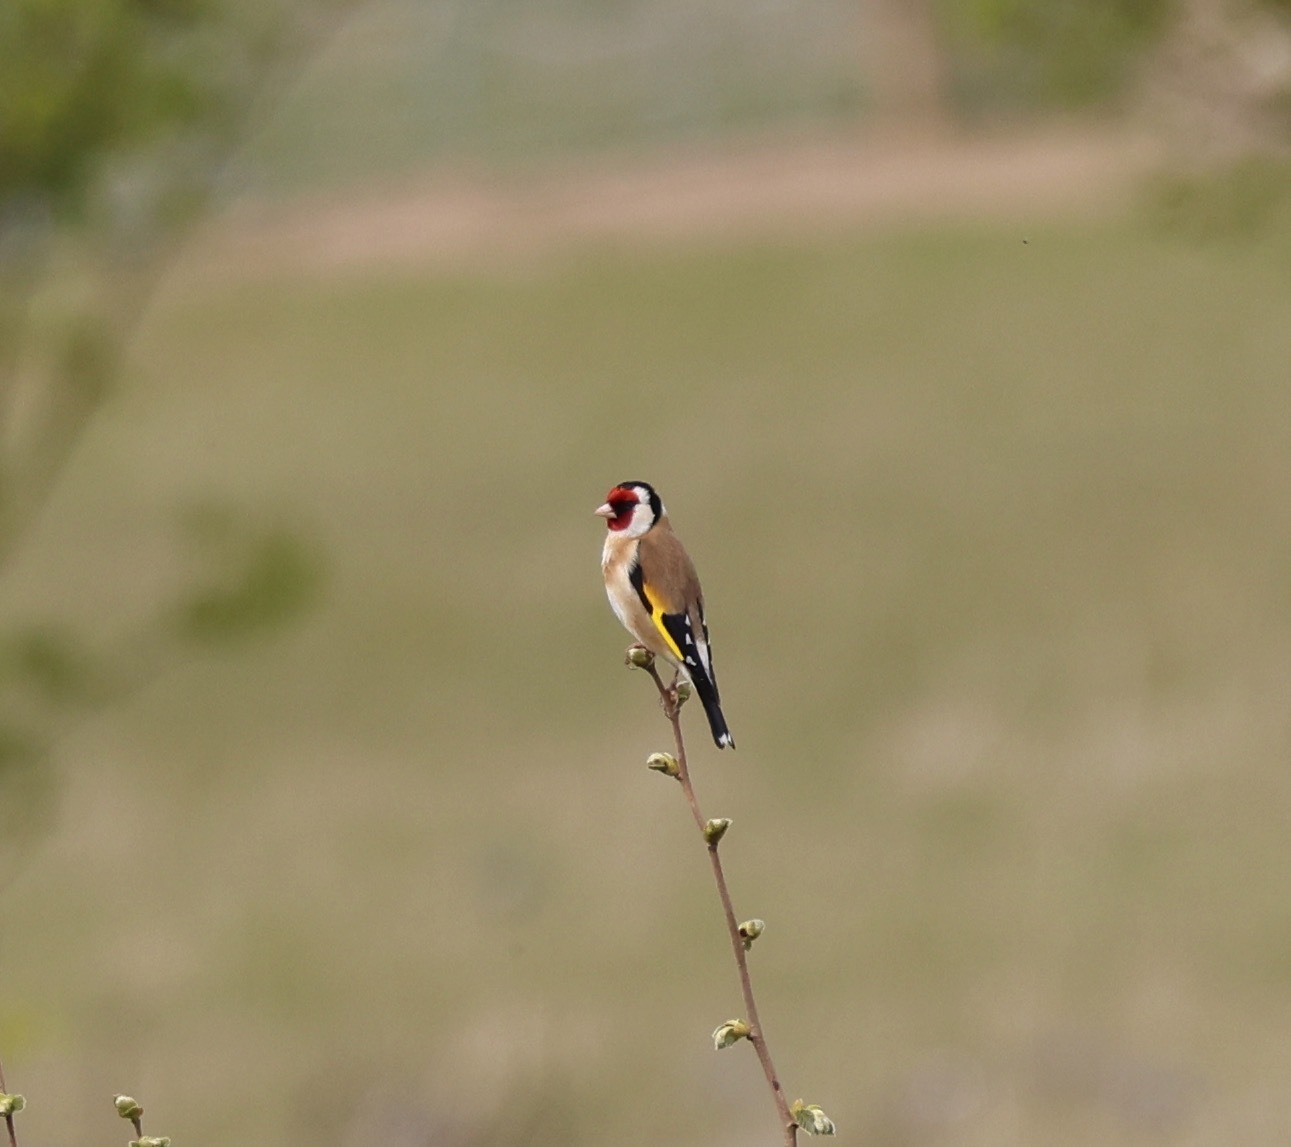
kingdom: Animalia
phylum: Chordata
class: Aves
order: Passeriformes
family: Fringillidae
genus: Carduelis
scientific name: Carduelis carduelis
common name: European goldfinch
